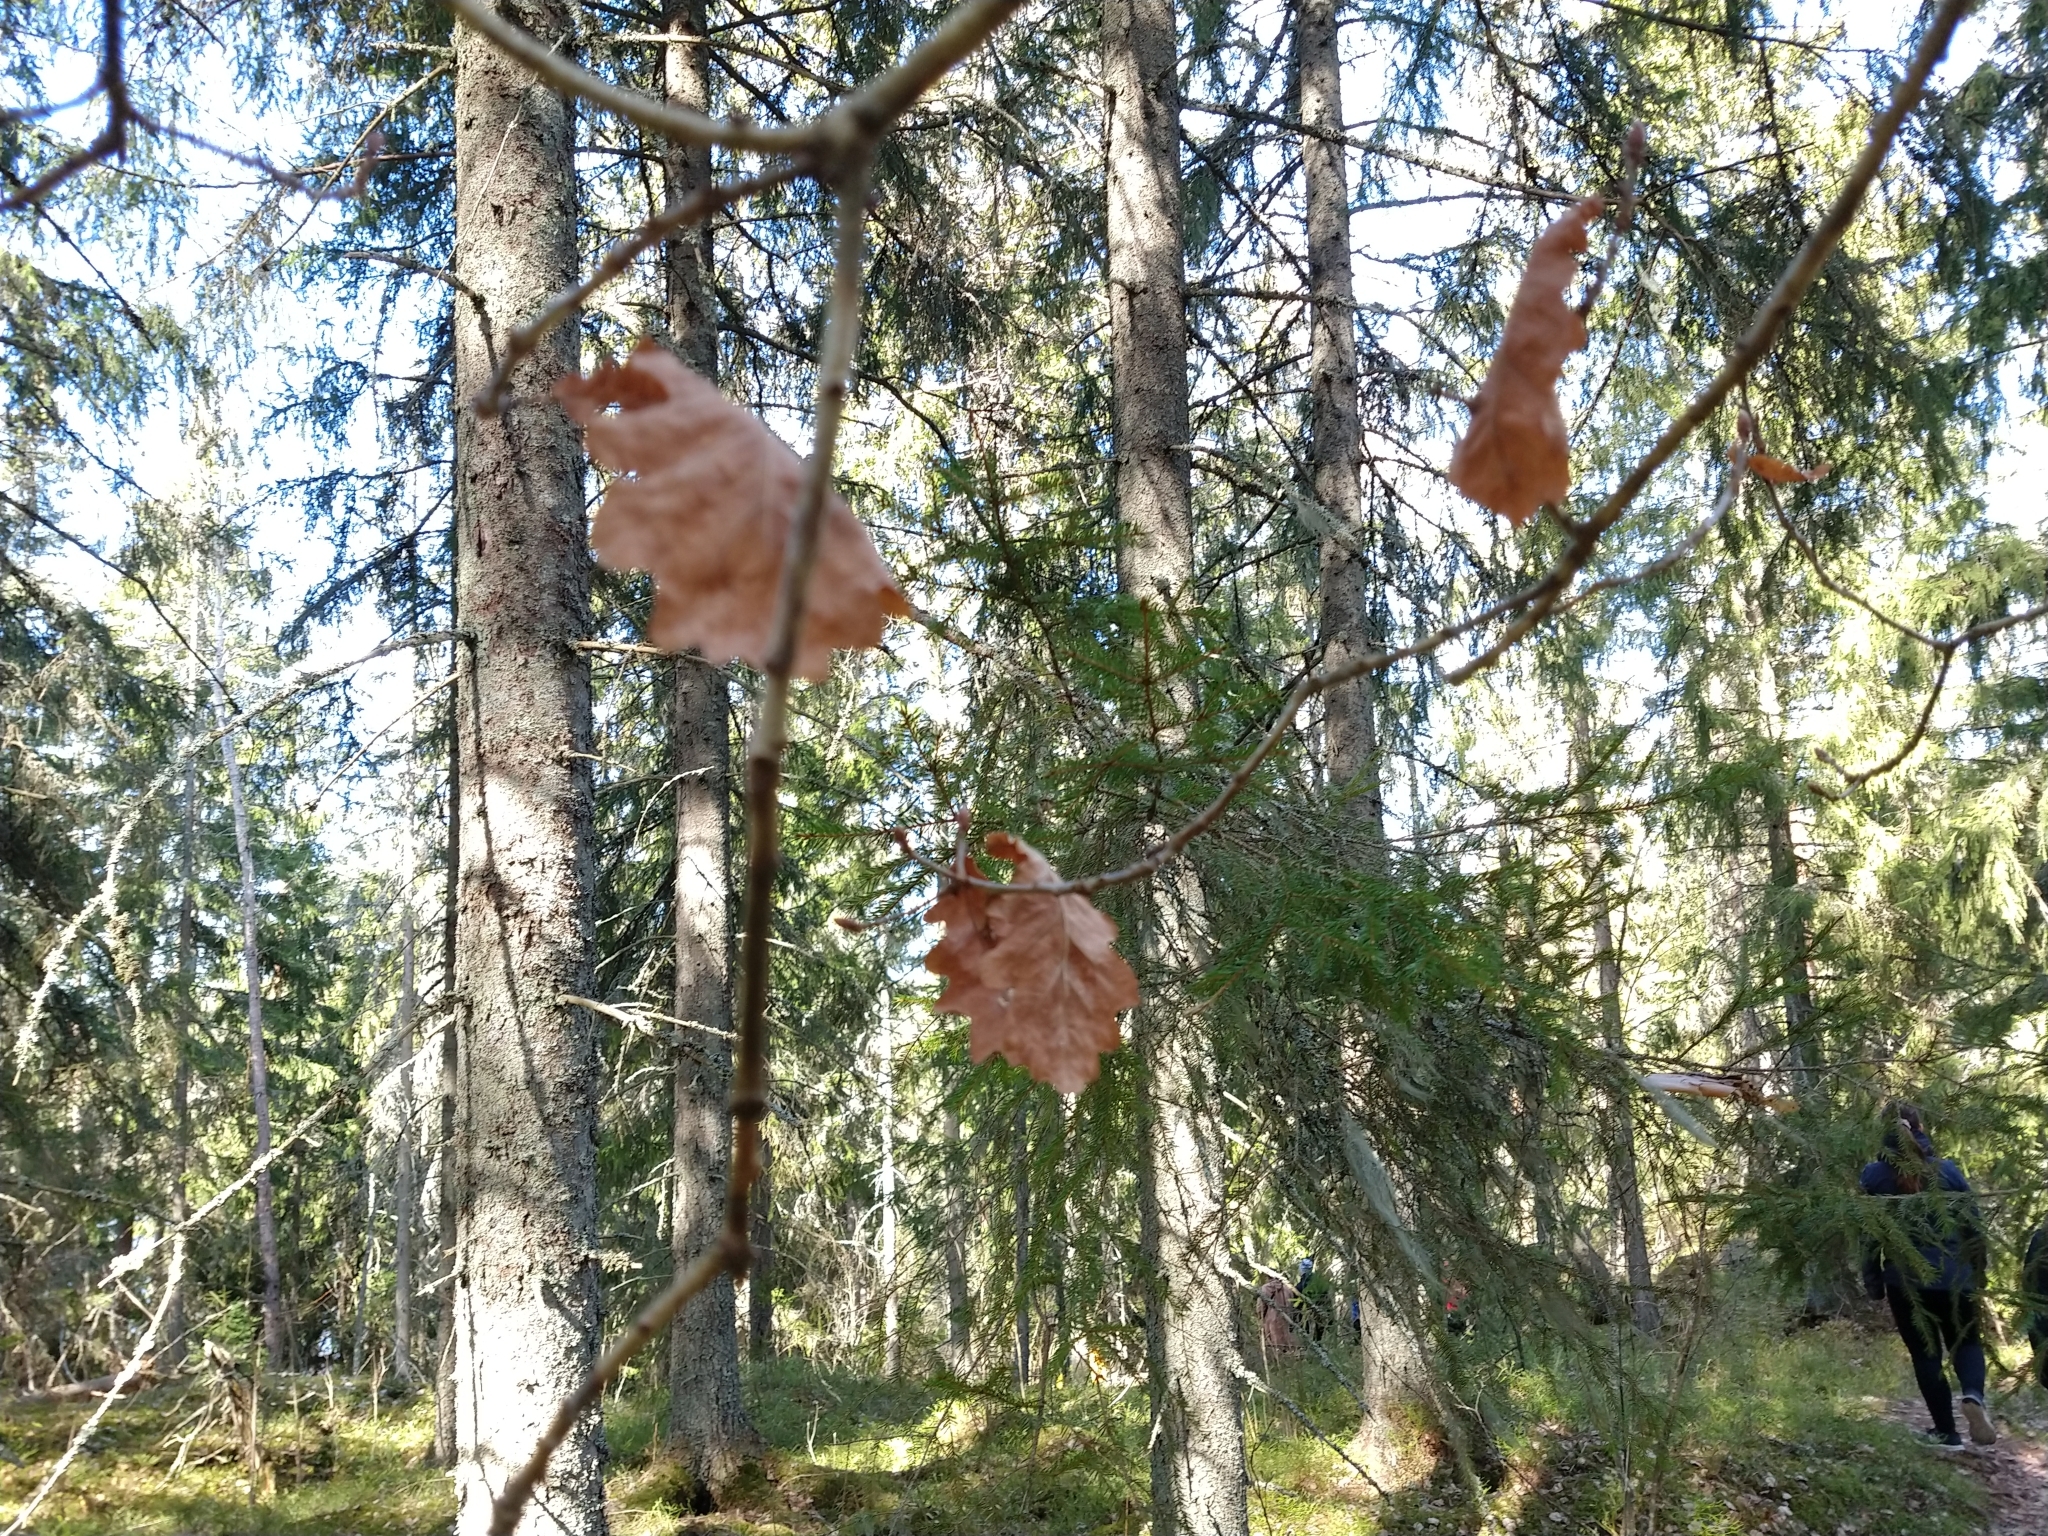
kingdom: Plantae
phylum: Tracheophyta
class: Magnoliopsida
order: Fagales
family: Fagaceae
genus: Quercus
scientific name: Quercus robur
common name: Pedunculate oak
